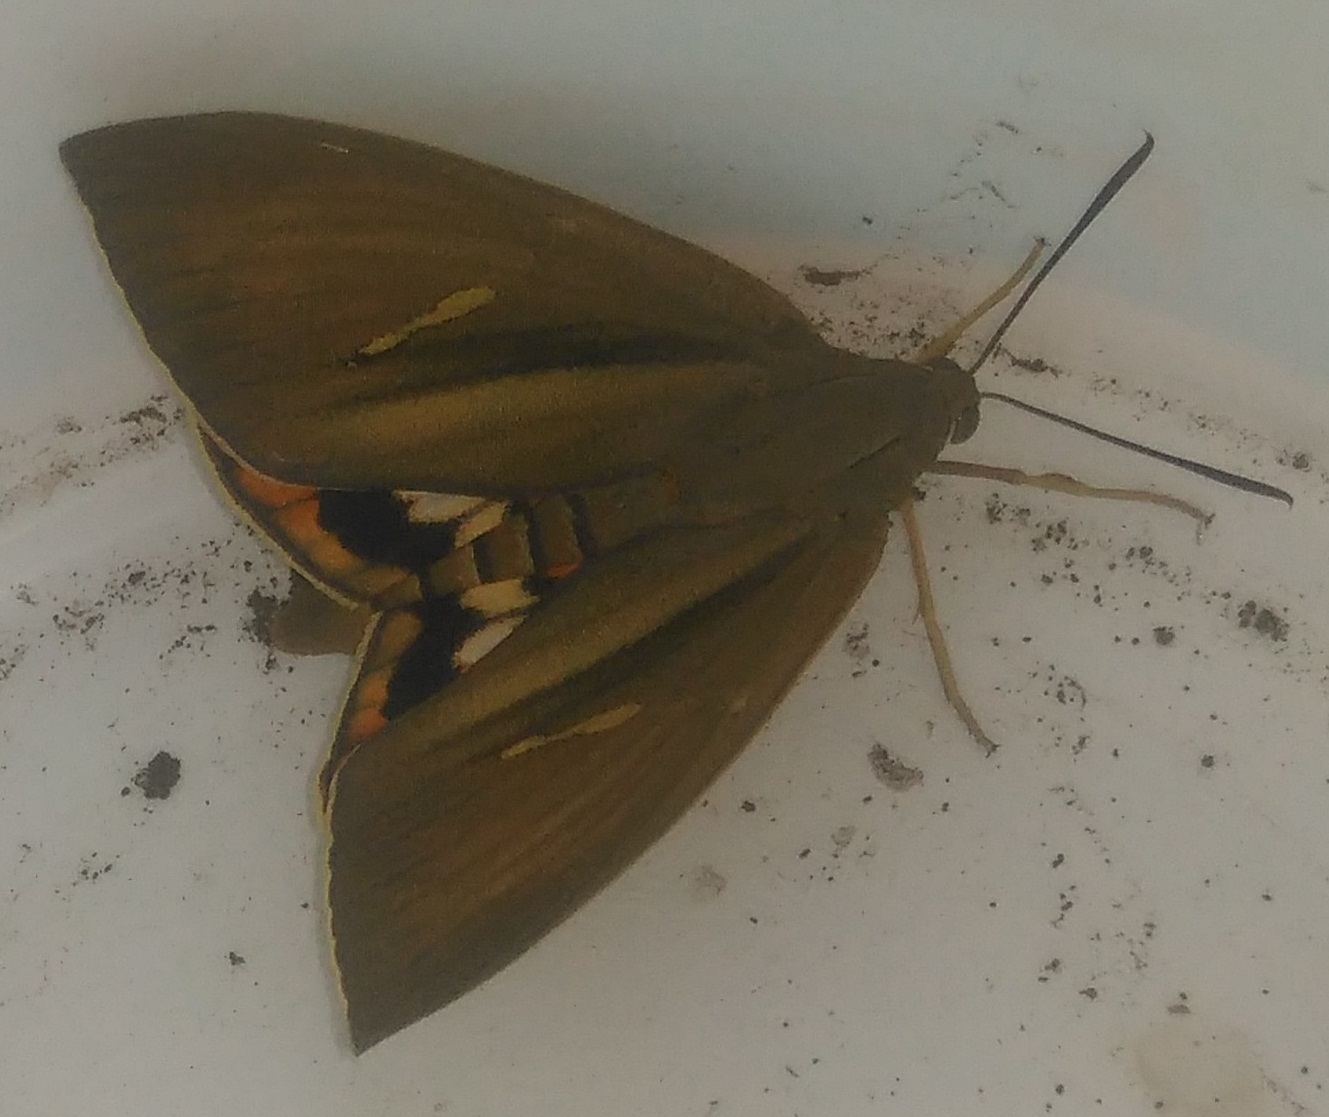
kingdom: Animalia
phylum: Arthropoda
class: Insecta
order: Lepidoptera
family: Castniidae
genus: Paysandisia
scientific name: Paysandisia archon
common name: Palm moth
